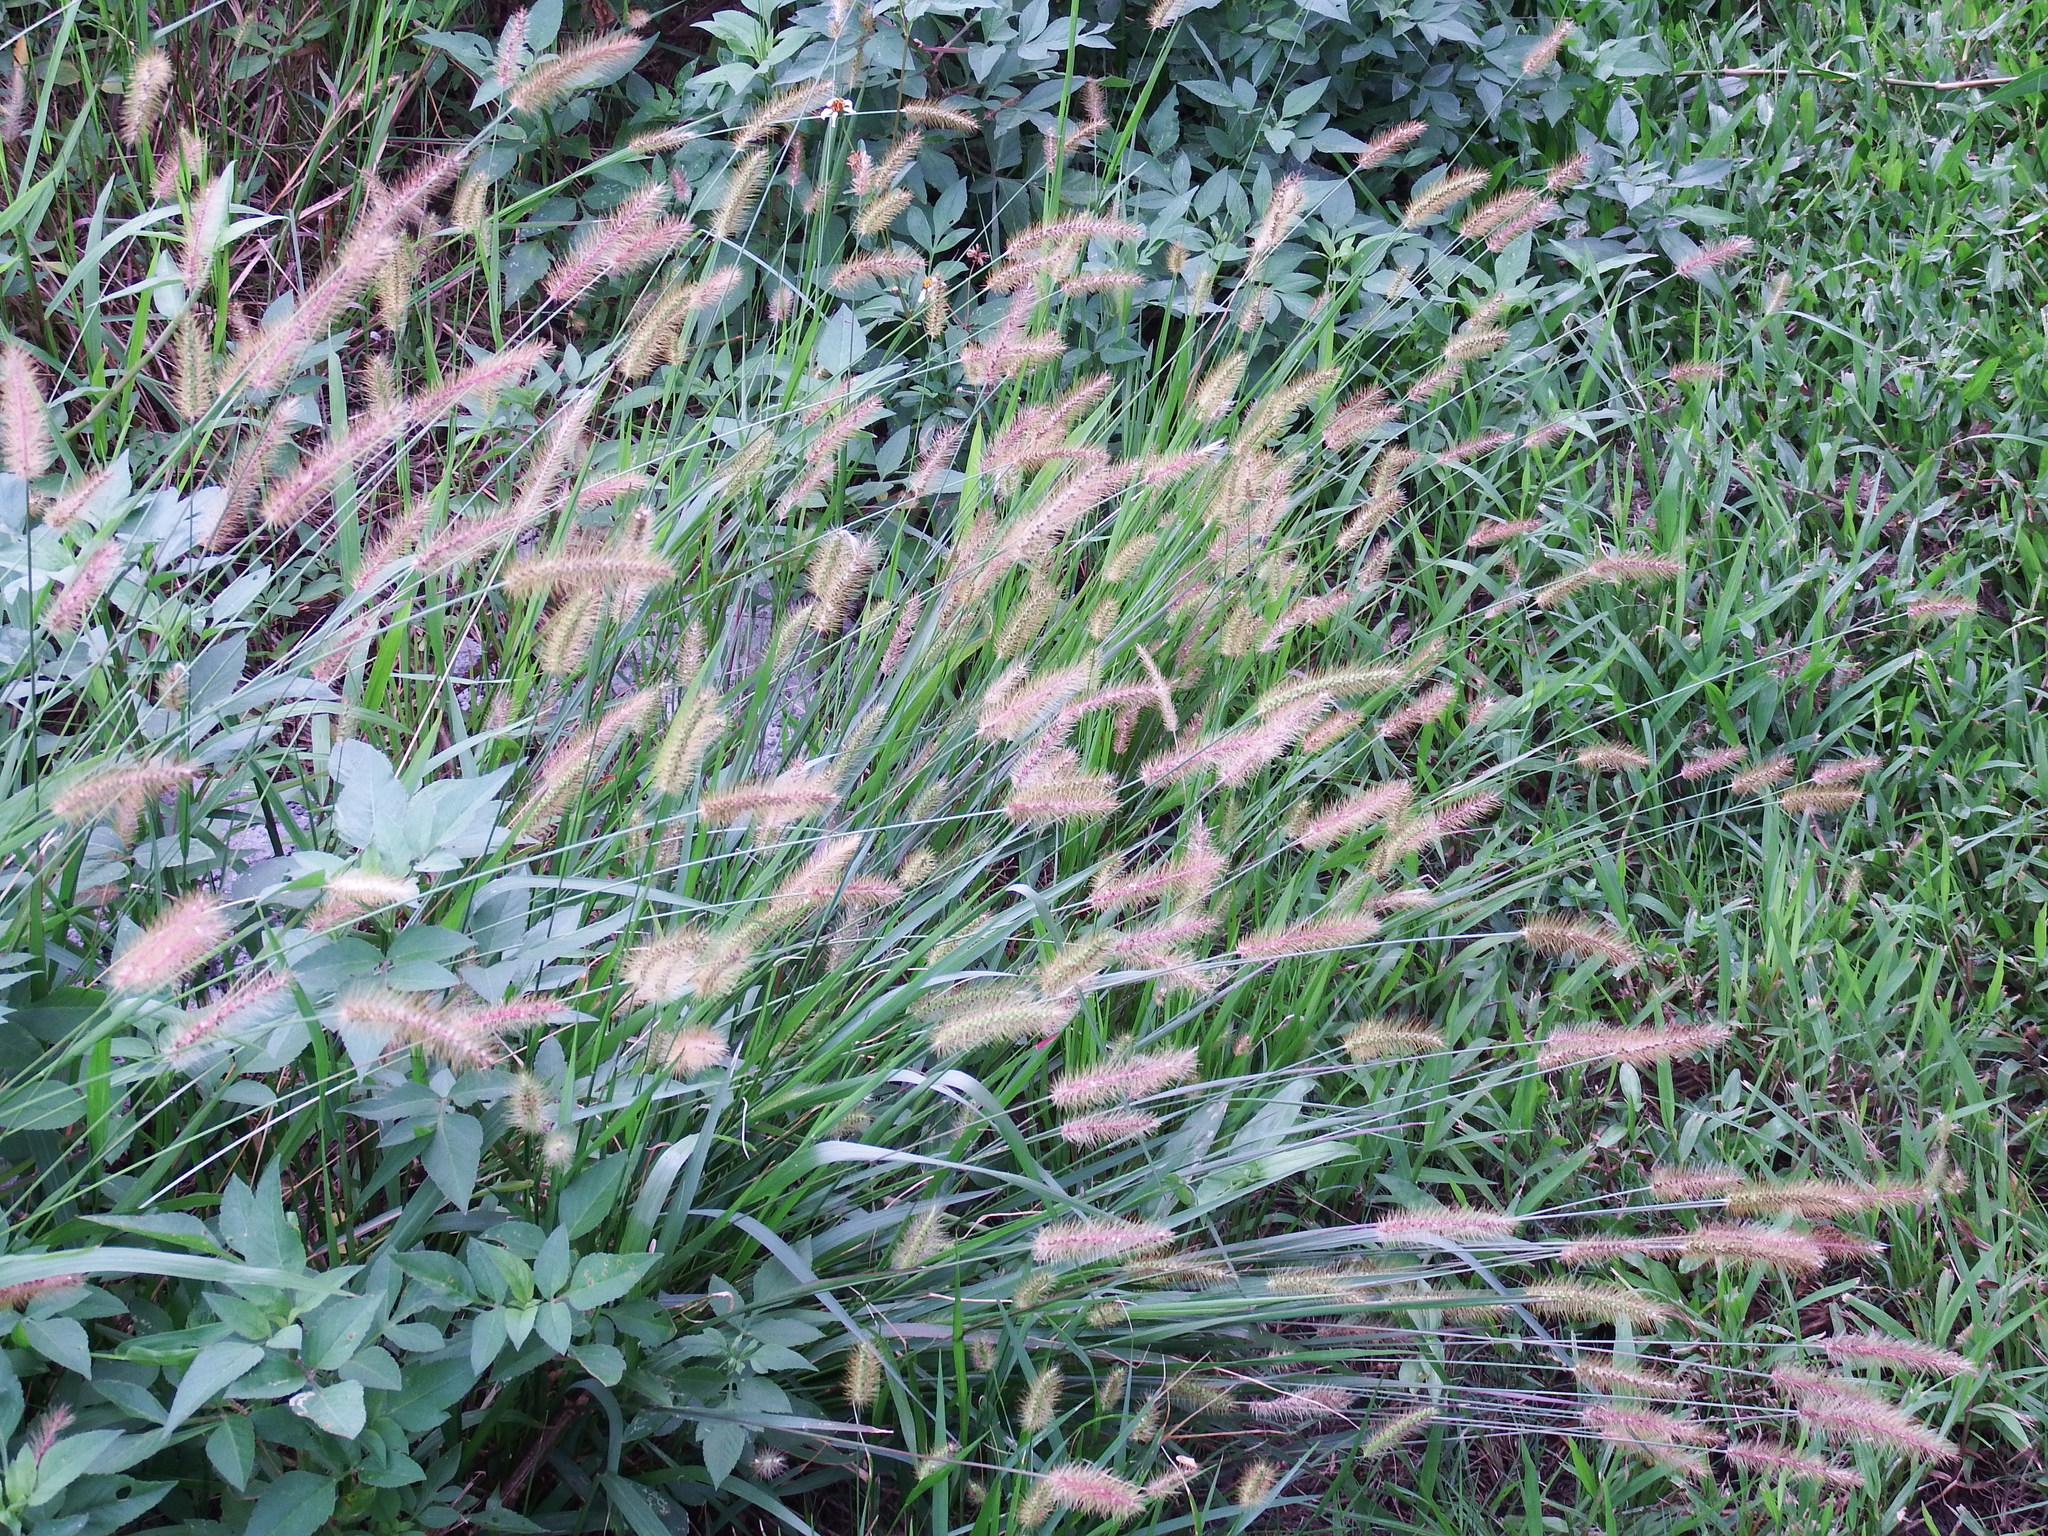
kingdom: Plantae
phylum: Tracheophyta
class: Liliopsida
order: Poales
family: Poaceae
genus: Setaria
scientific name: Setaria parviflora
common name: Knotroot bristle-grass
